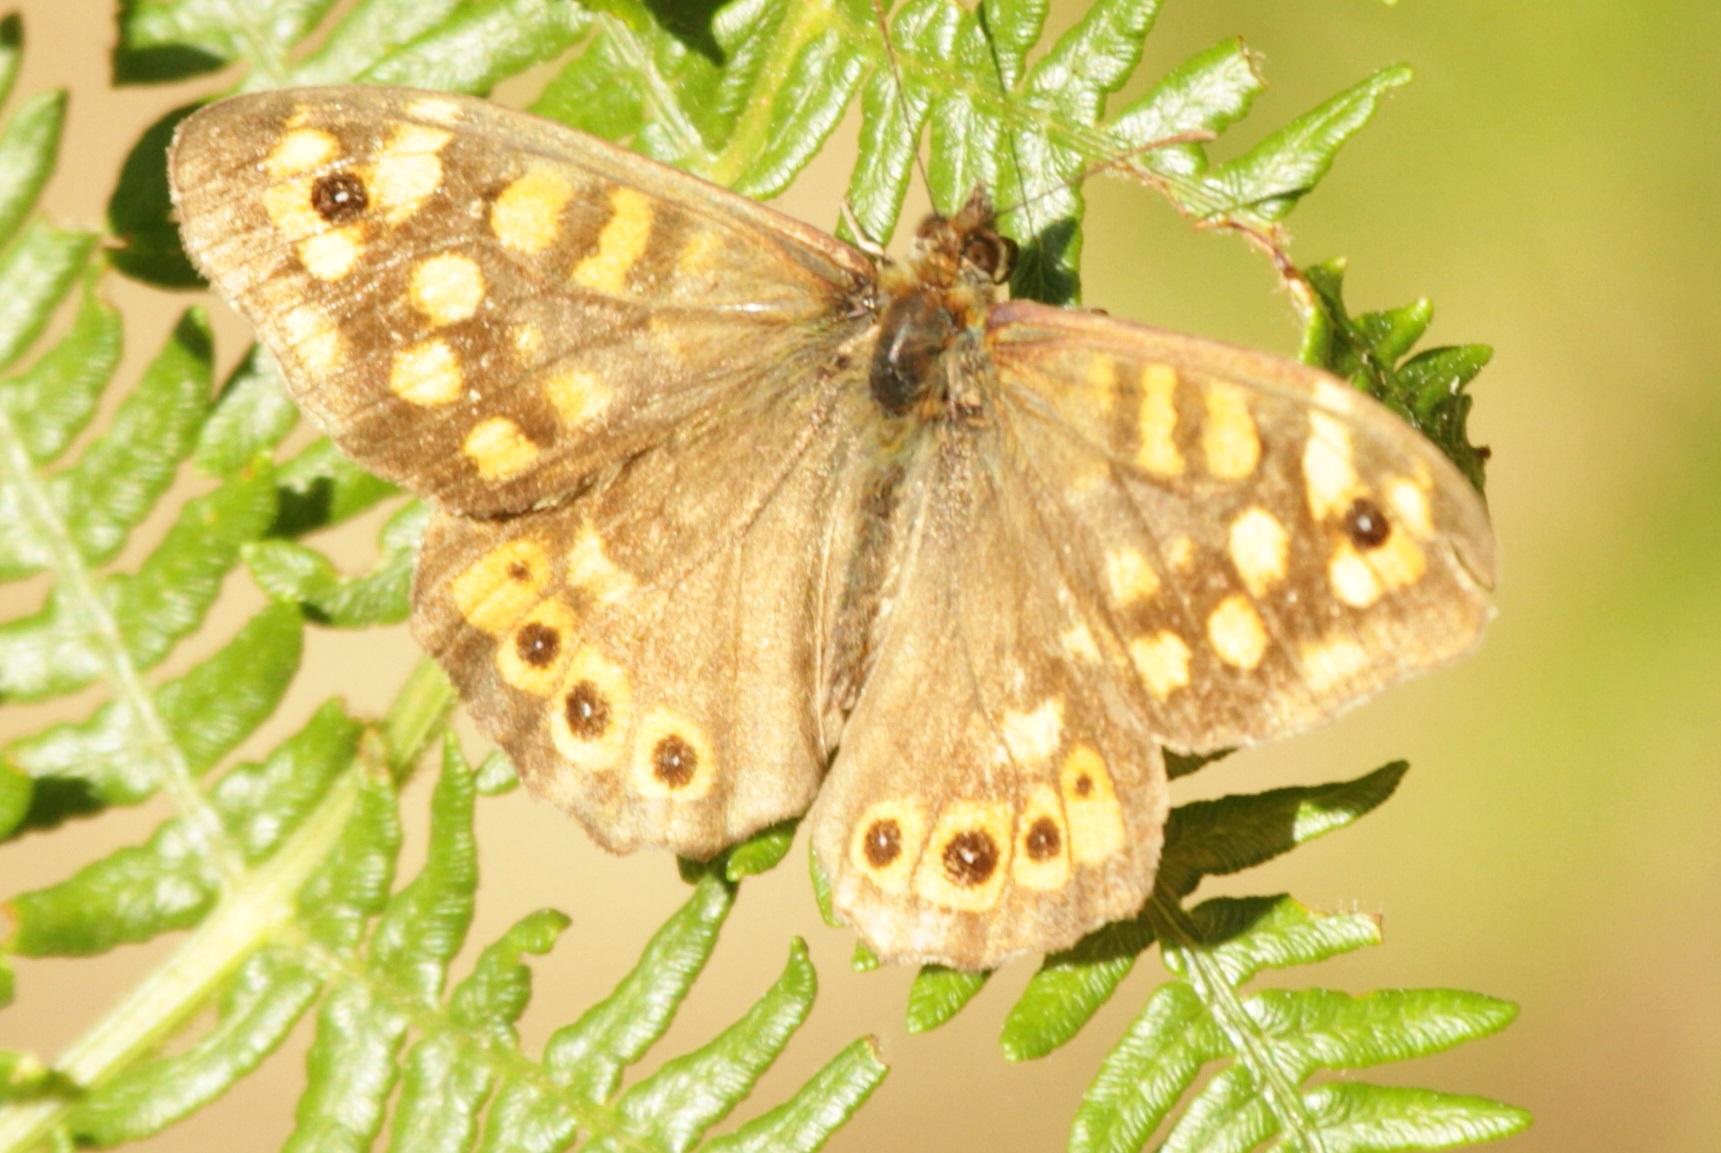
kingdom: Animalia
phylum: Arthropoda
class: Insecta
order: Lepidoptera
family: Nymphalidae
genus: Pararge
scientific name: Pararge aegeria
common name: Speckled wood
